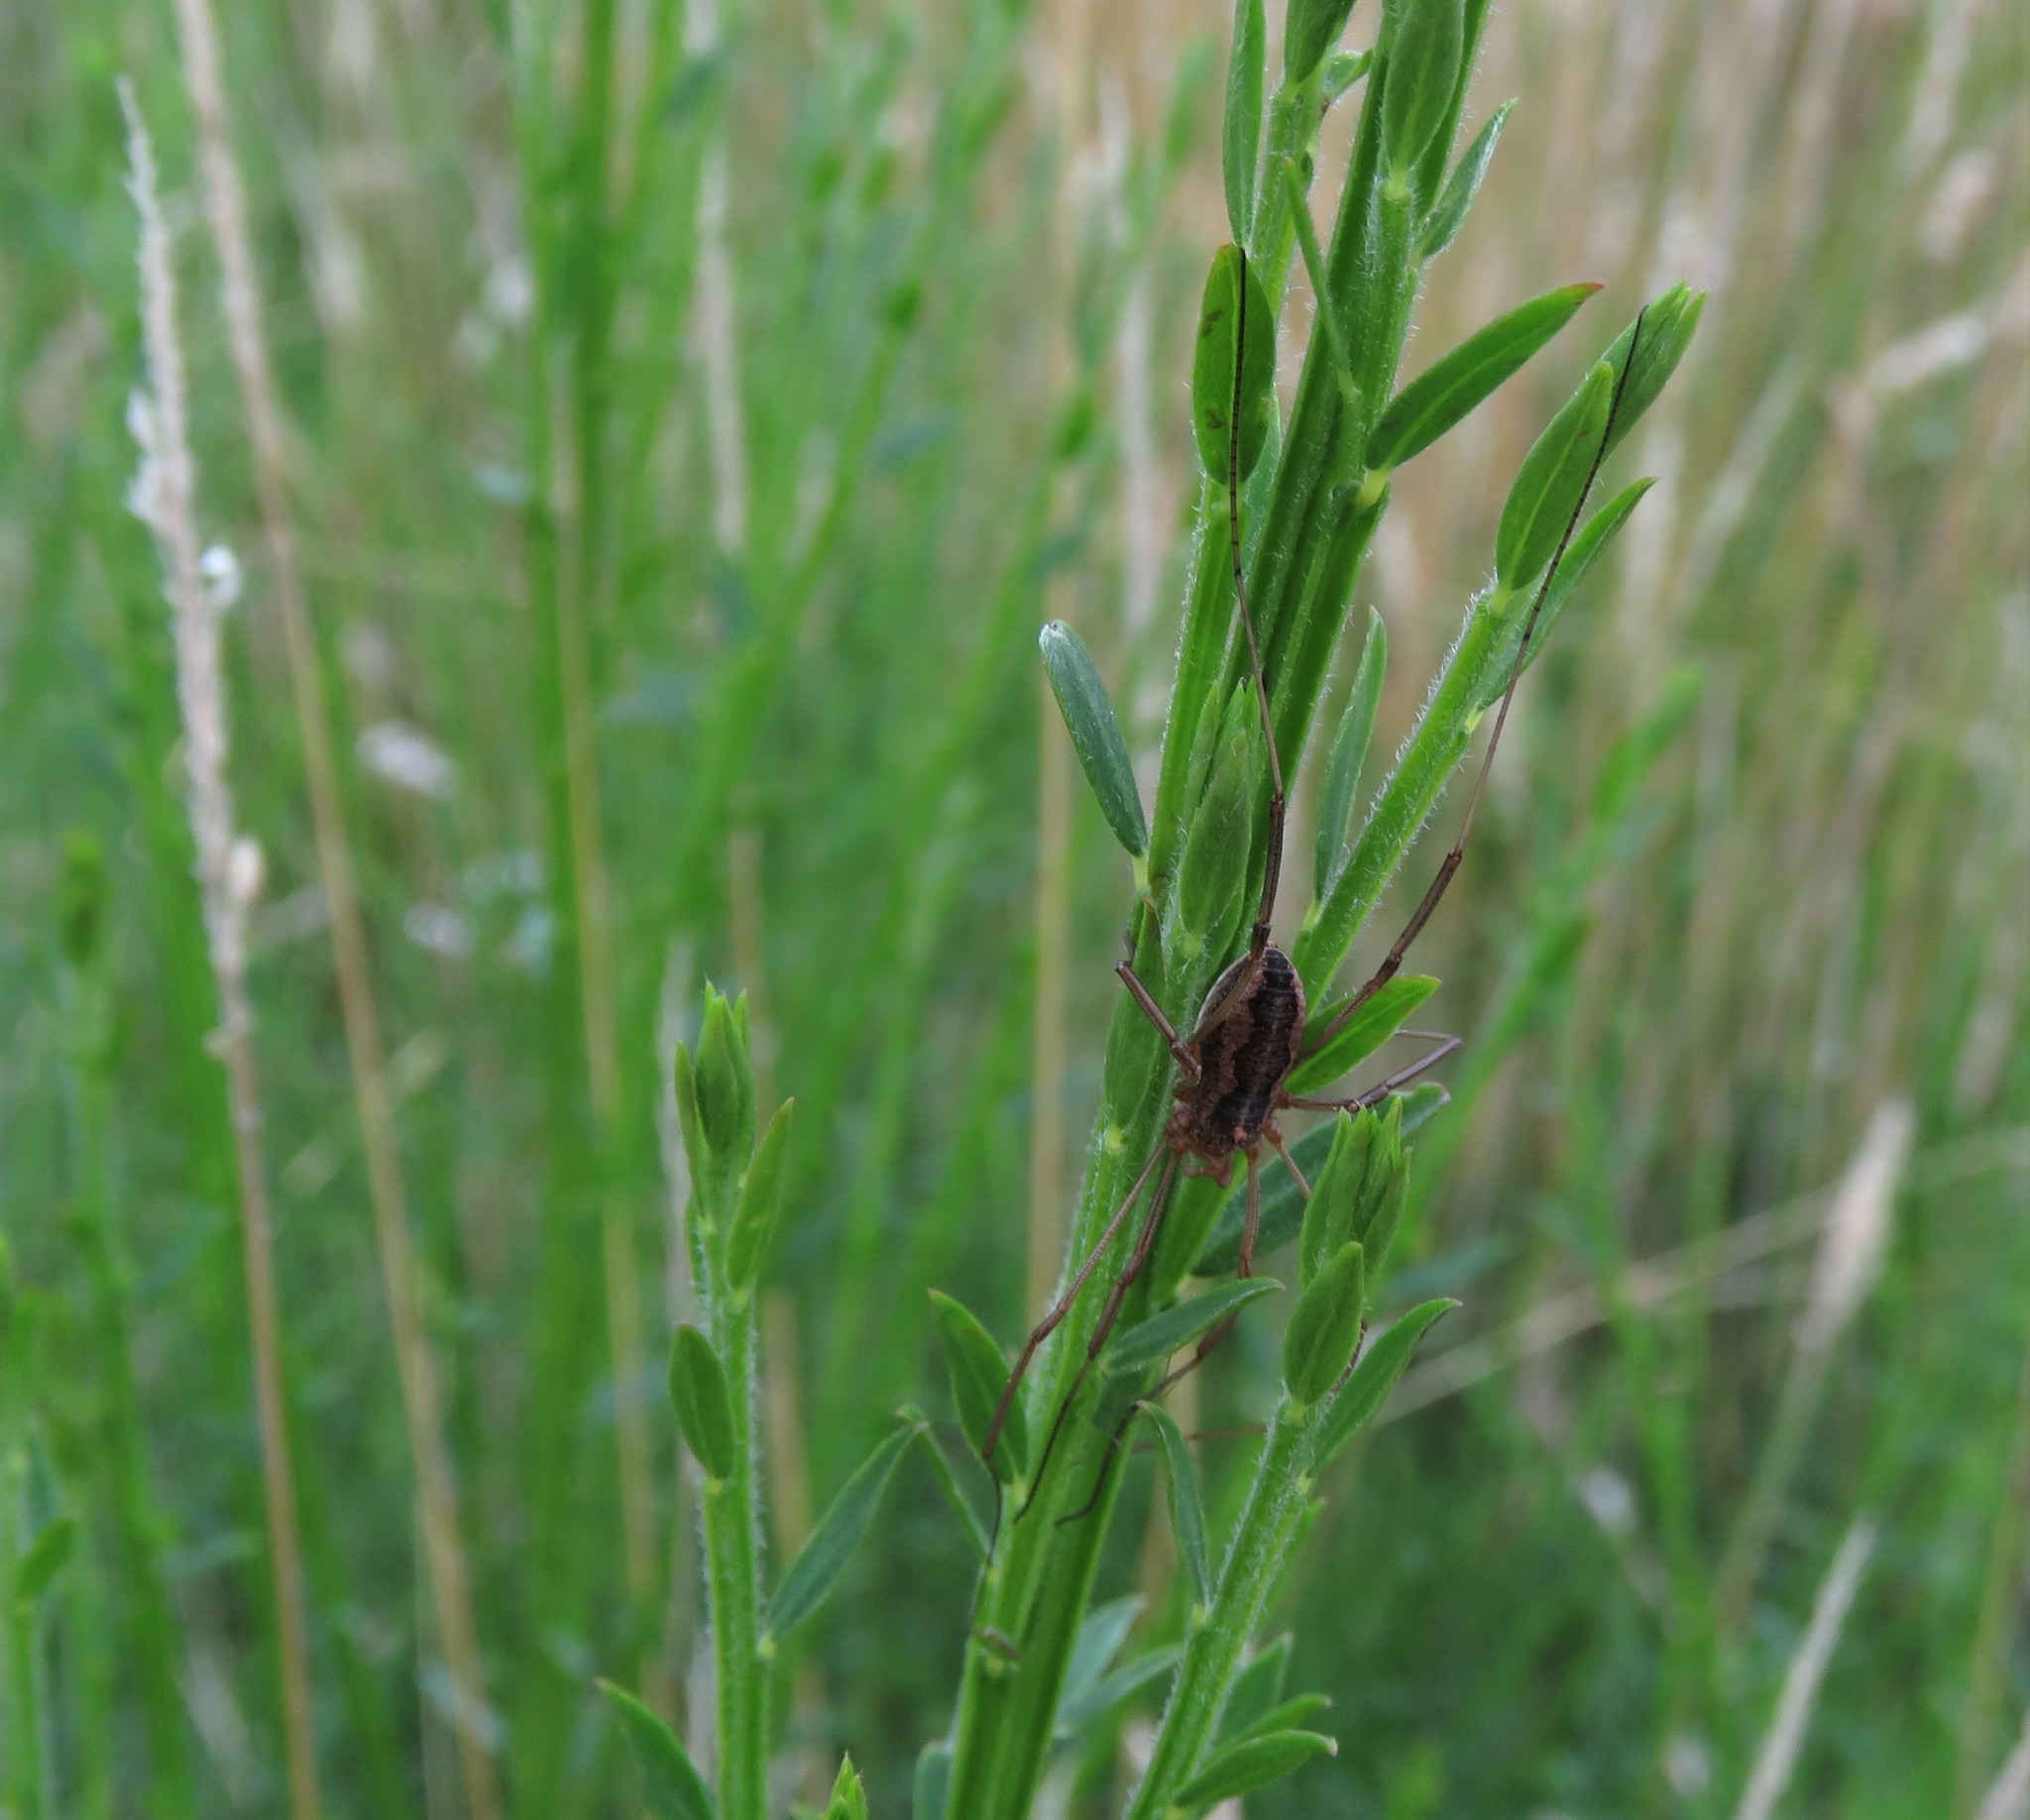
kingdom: Animalia
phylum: Arthropoda
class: Arachnida
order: Opiliones
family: Phalangiidae
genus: Phalangium
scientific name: Phalangium opilio
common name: Daddy longleg
